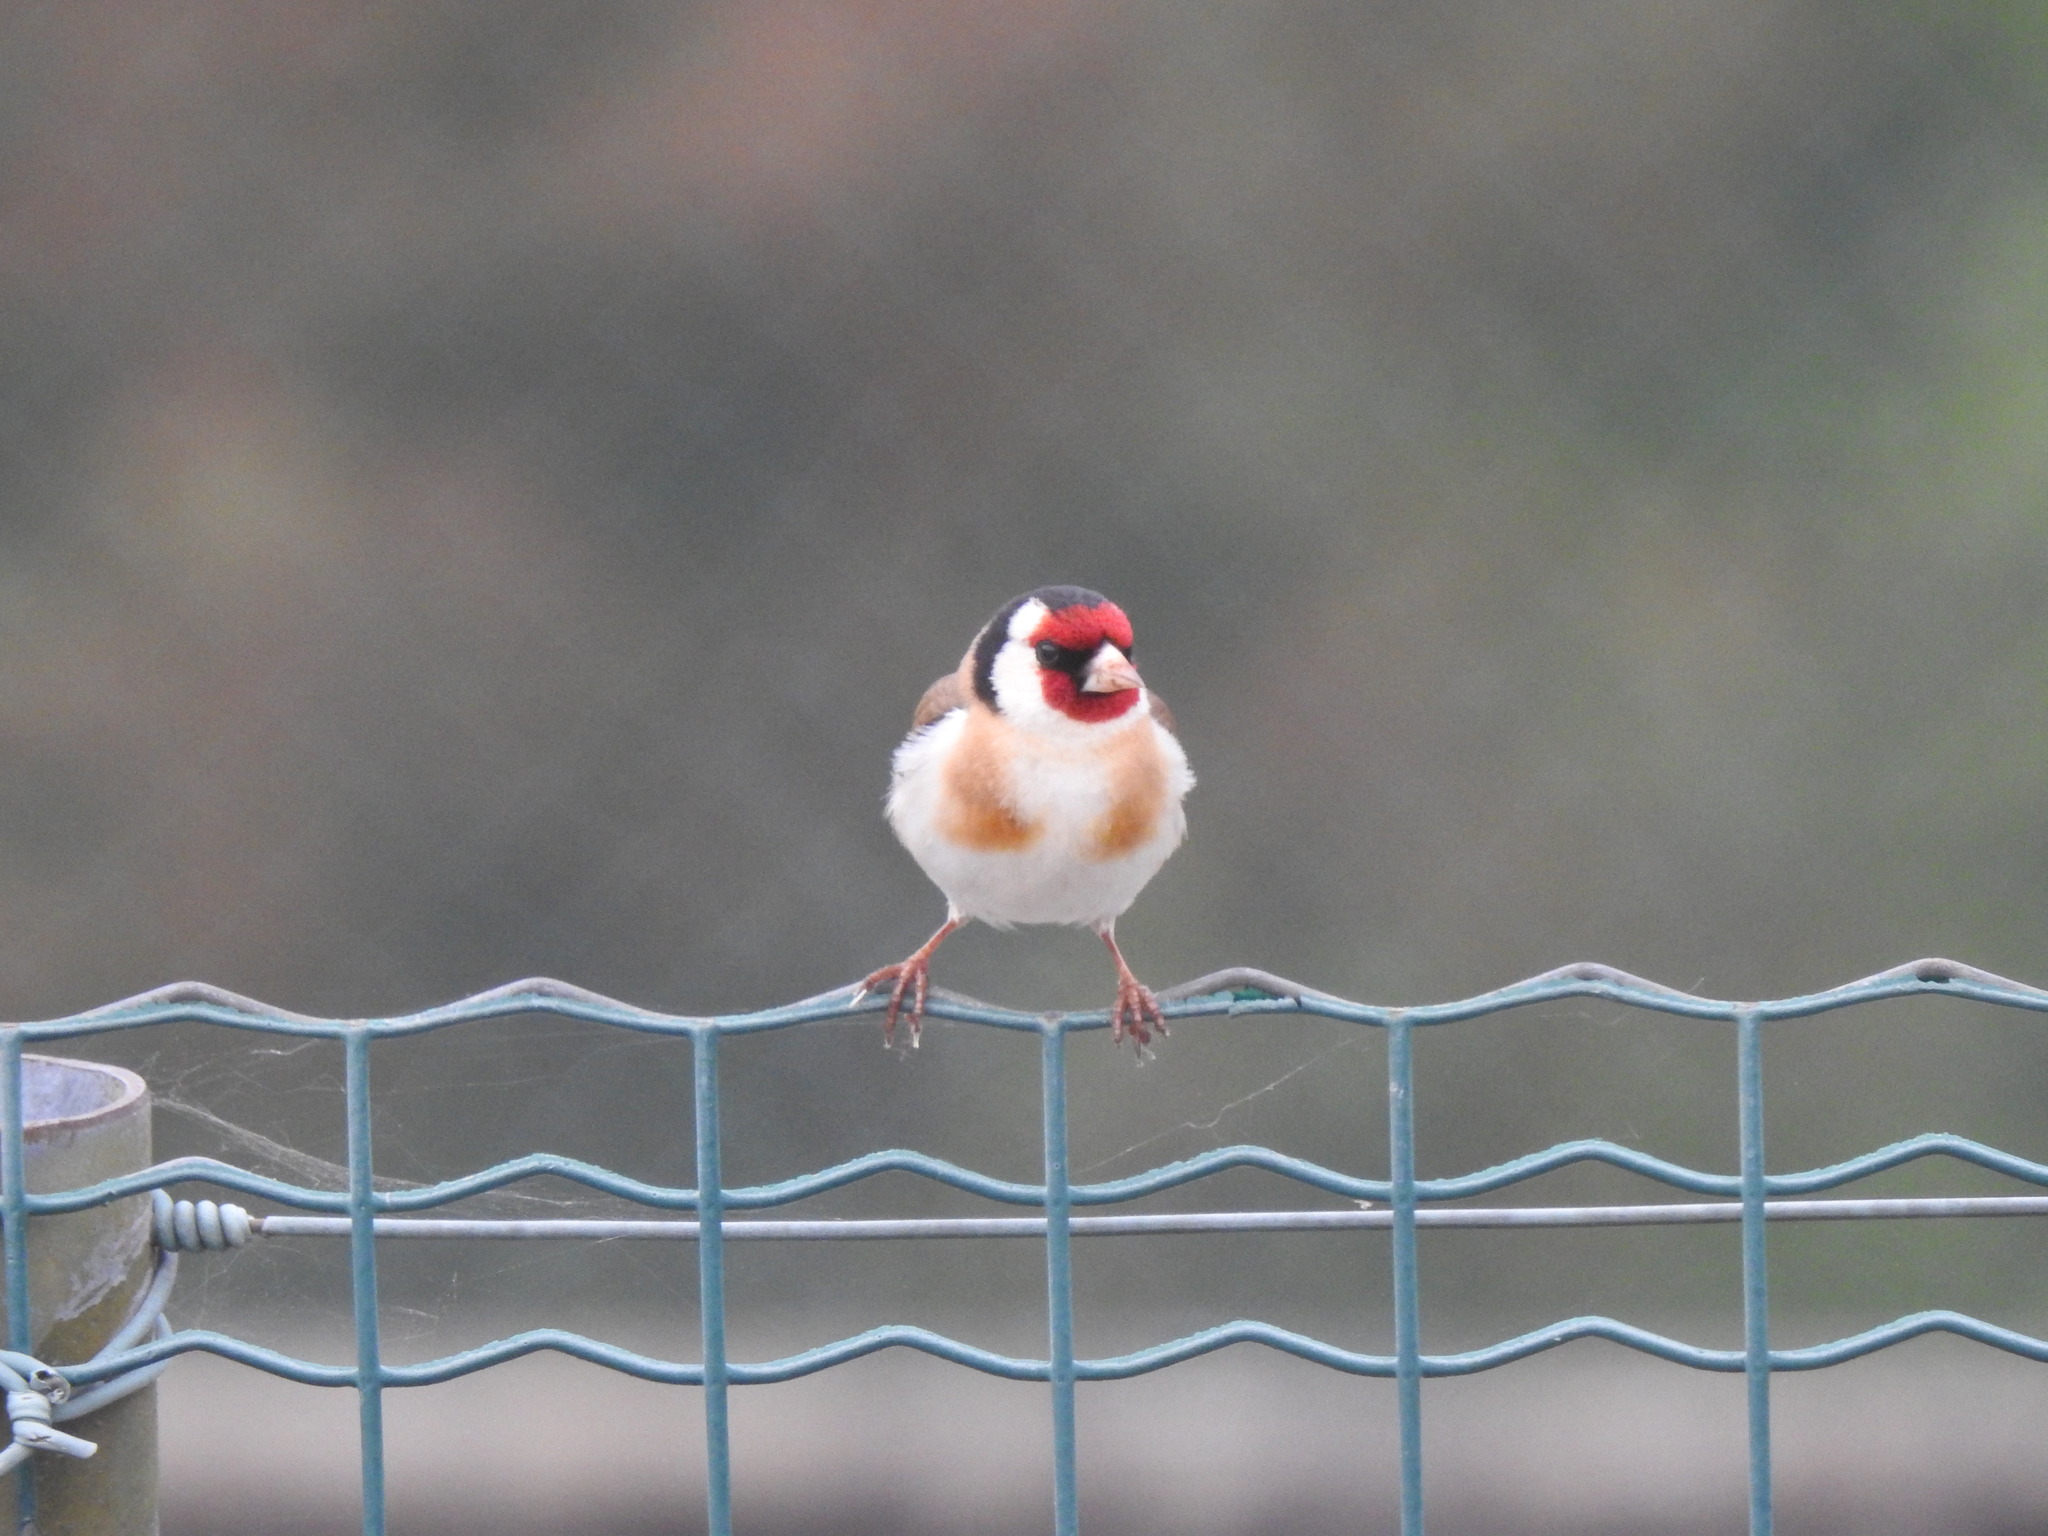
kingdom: Animalia
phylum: Chordata
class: Aves
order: Passeriformes
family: Fringillidae
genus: Carduelis
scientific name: Carduelis carduelis
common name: European goldfinch
